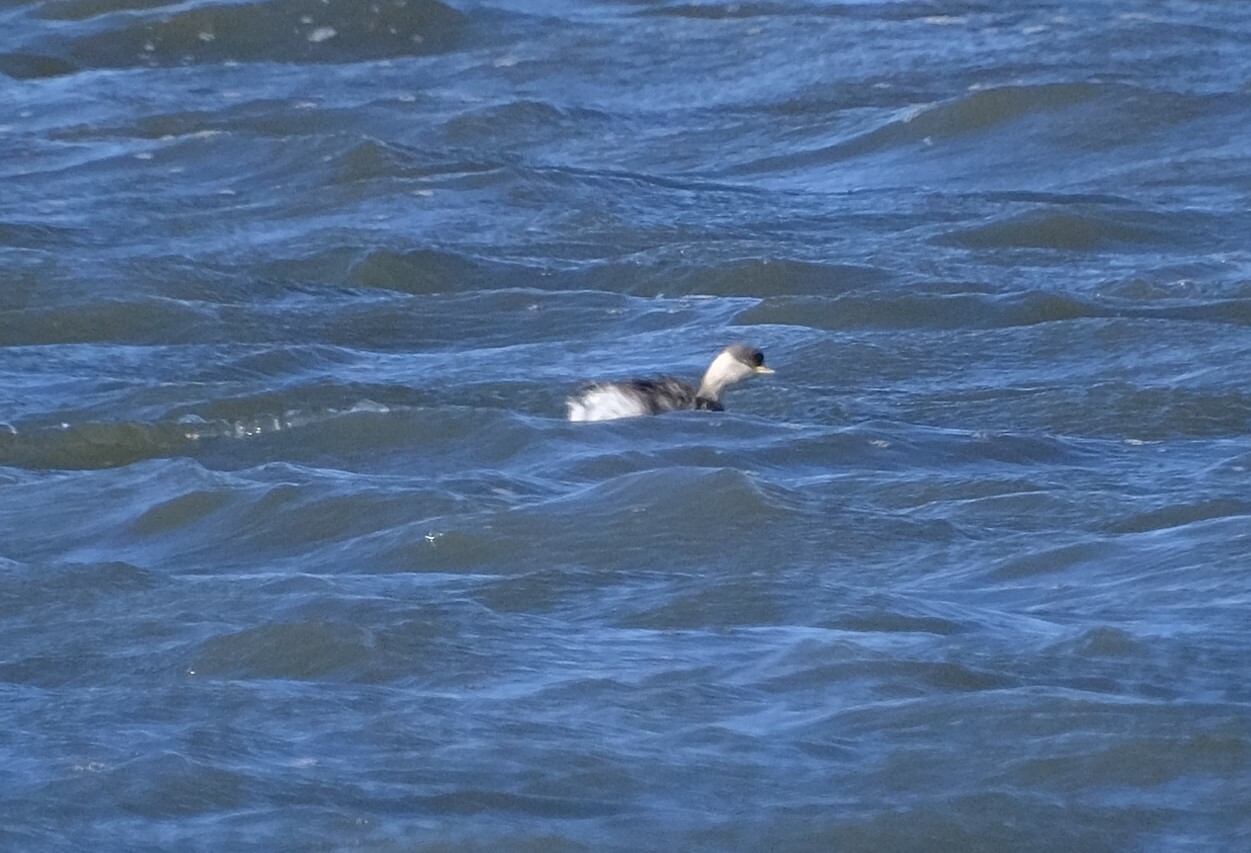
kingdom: Animalia
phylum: Chordata
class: Aves
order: Podicipediformes
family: Podicipedidae
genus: Poliocephalus
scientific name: Poliocephalus poliocephalus
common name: Hoary-headed grebe
